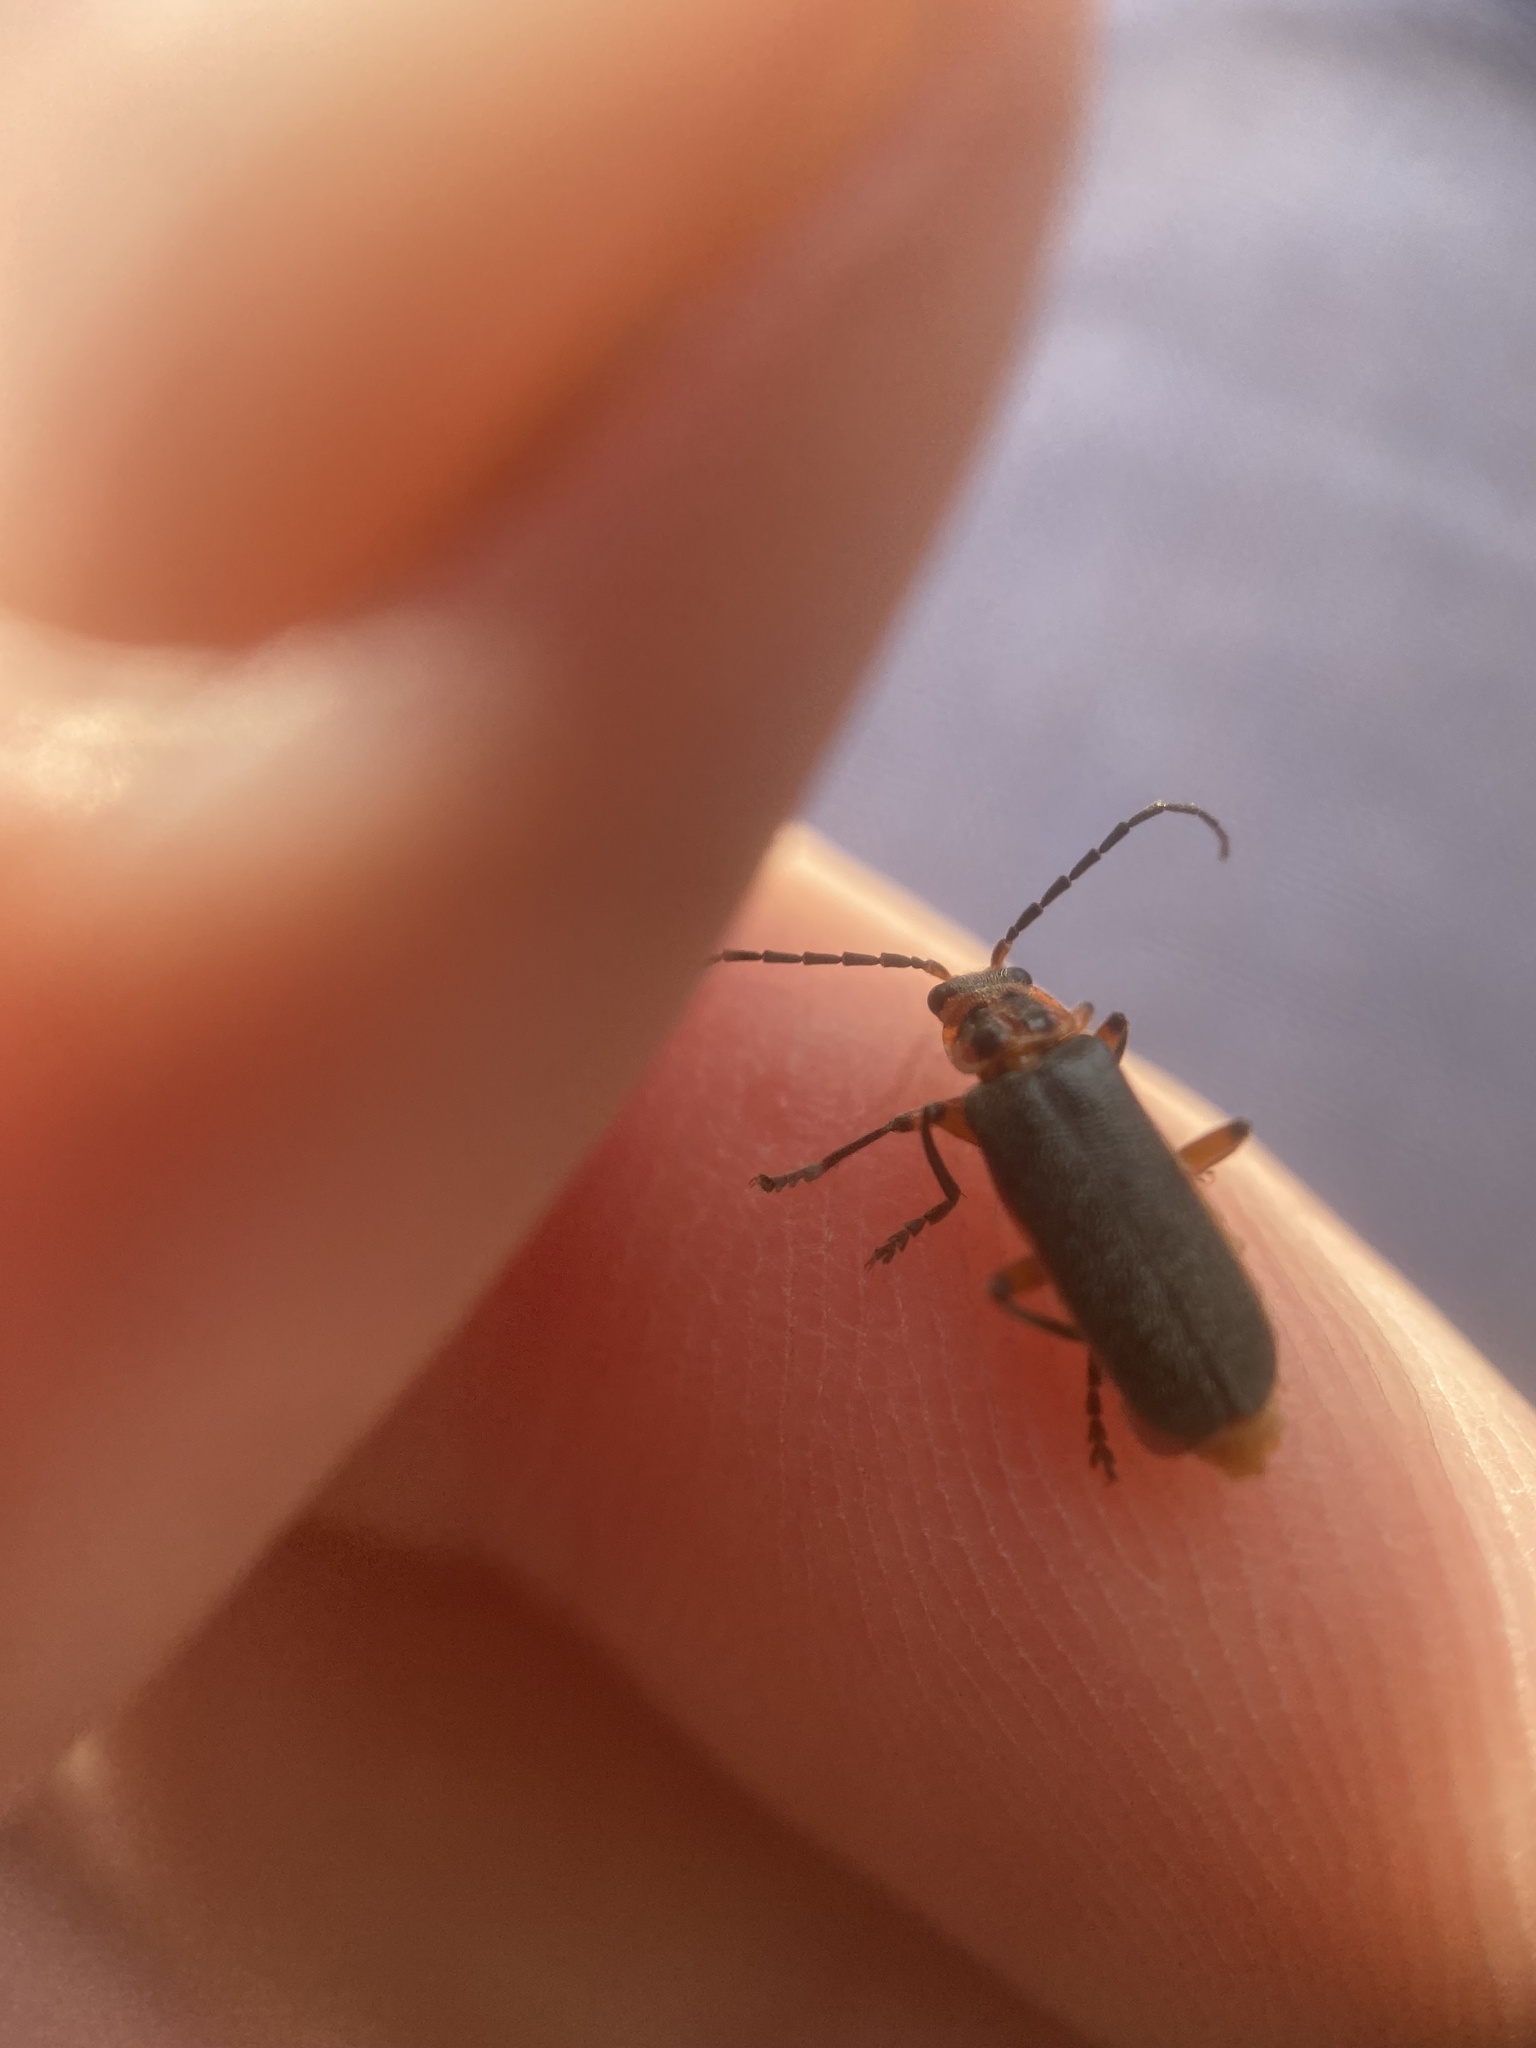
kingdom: Animalia
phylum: Arthropoda
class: Insecta
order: Coleoptera
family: Cantharidae
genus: Atalantycha
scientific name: Atalantycha bilineata
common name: Two-lined leatherwing
